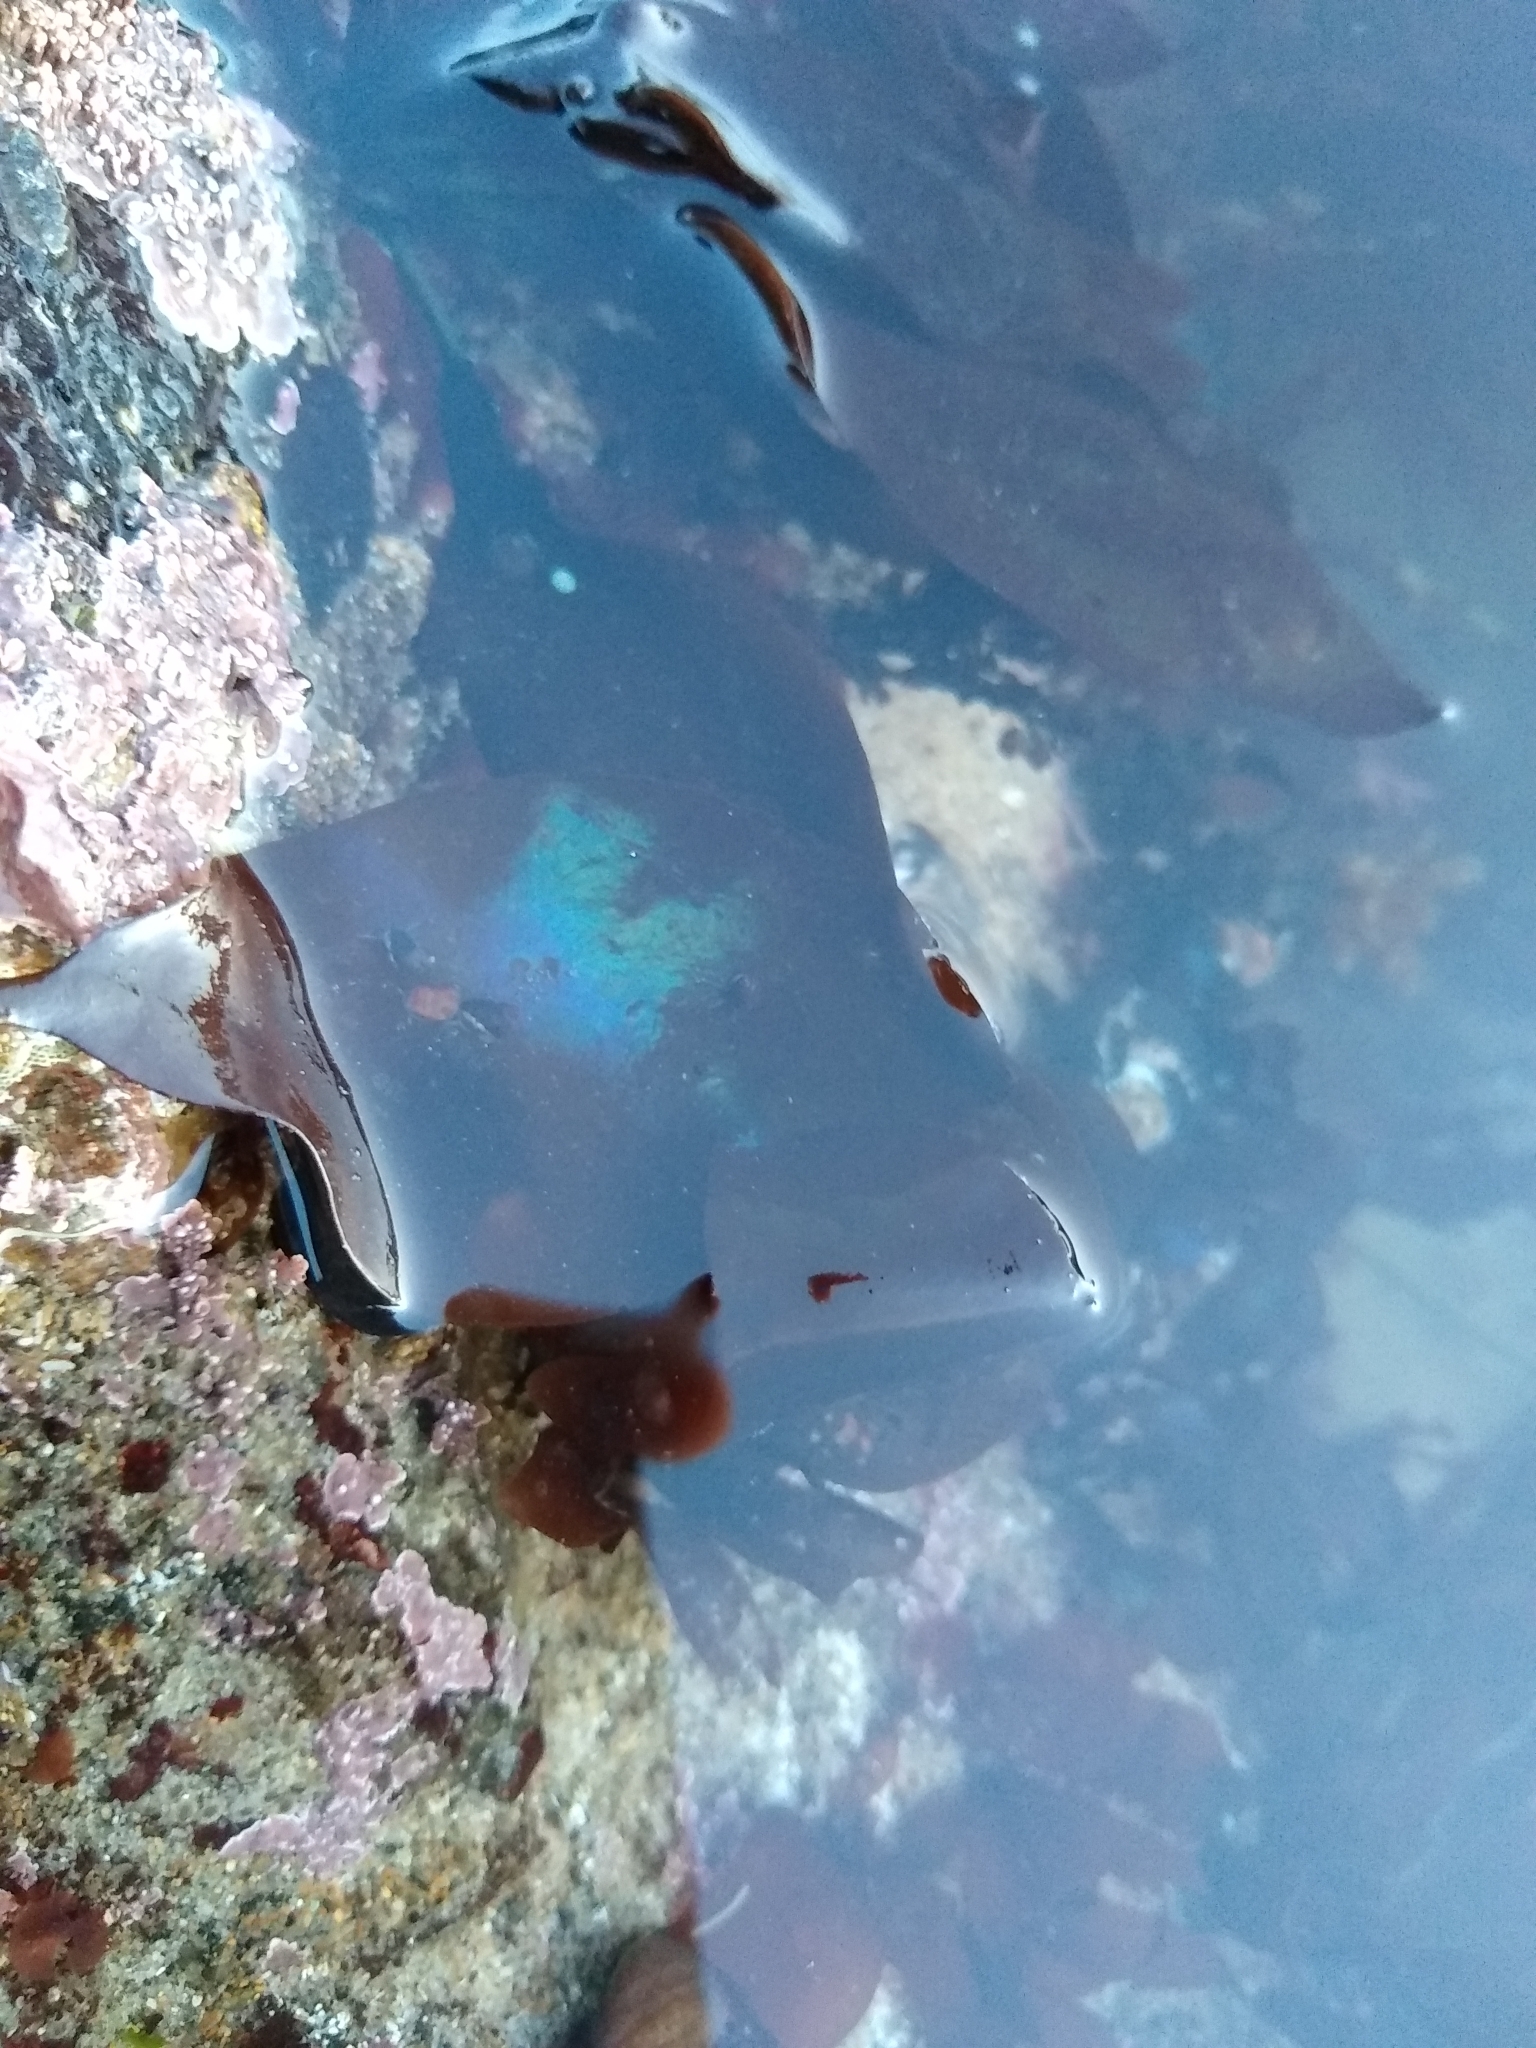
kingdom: Plantae
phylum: Rhodophyta
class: Florideophyceae
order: Gigartinales
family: Gigartinaceae
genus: Mazzaella
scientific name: Mazzaella splendens
